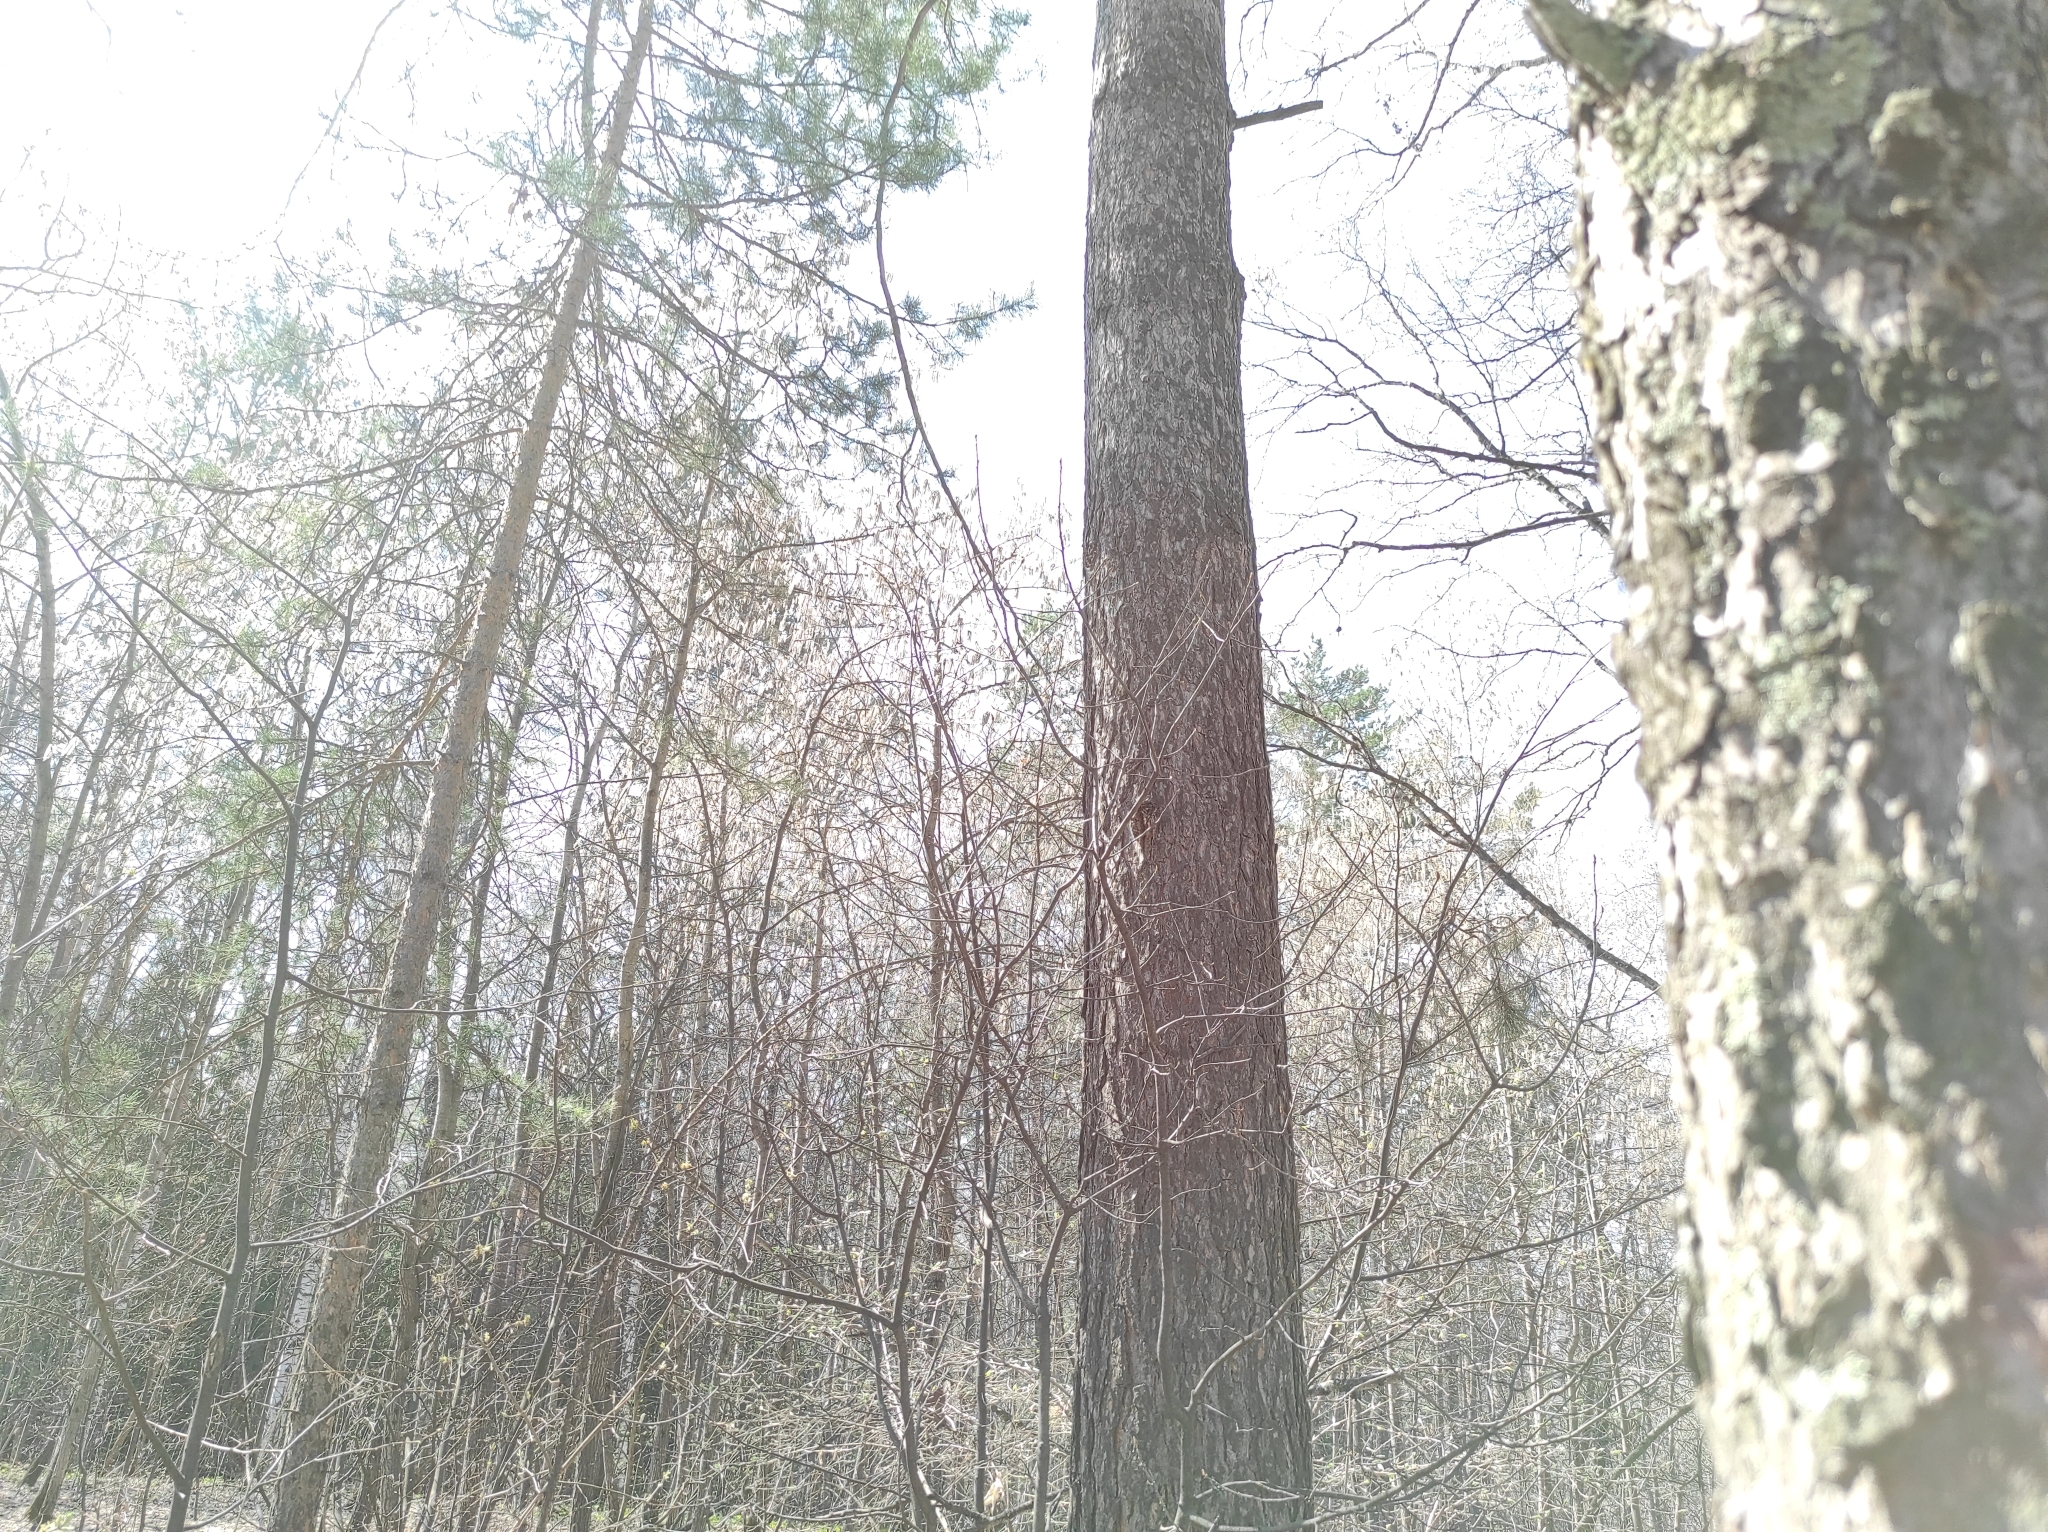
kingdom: Plantae
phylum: Tracheophyta
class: Magnoliopsida
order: Malpighiales
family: Salicaceae
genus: Populus
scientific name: Populus tremula
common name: European aspen
